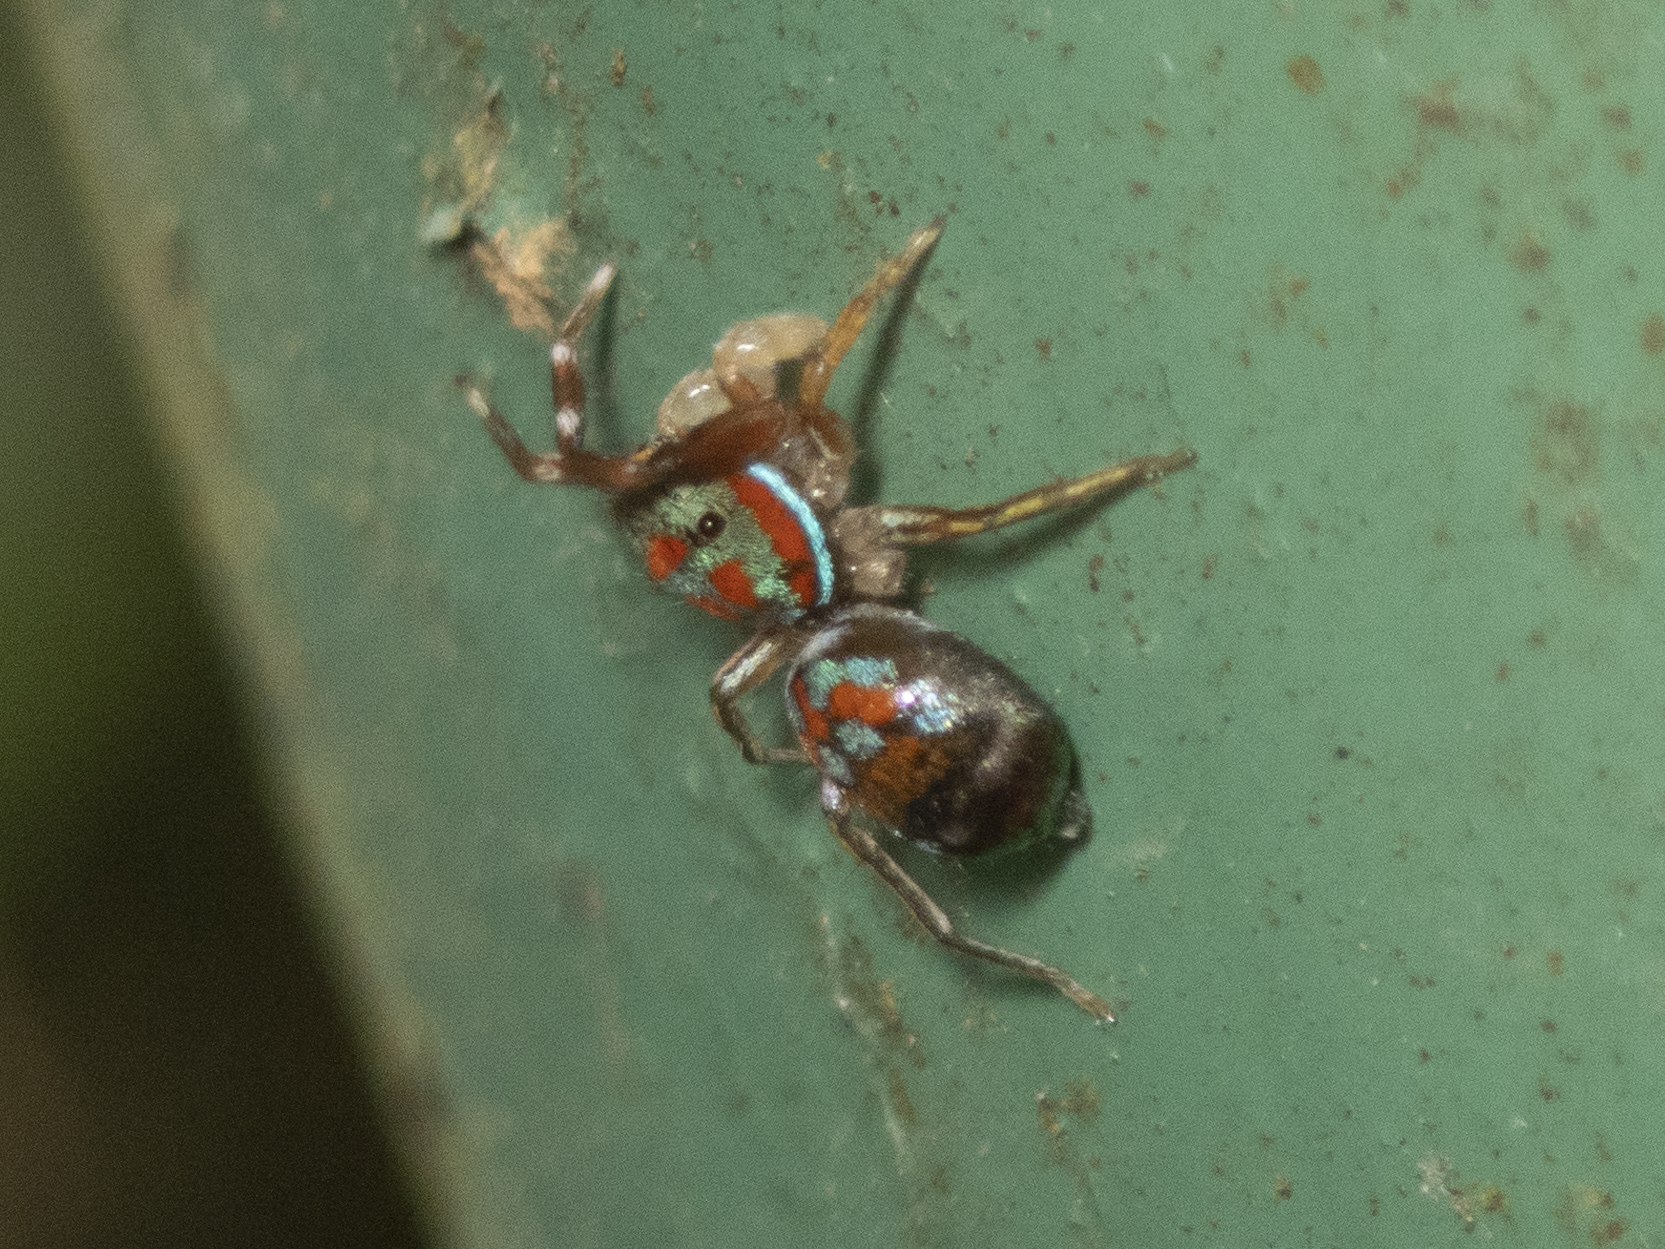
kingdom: Animalia
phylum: Arthropoda
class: Arachnida
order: Araneae
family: Salticidae
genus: Siler
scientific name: Siler collingwoodi
